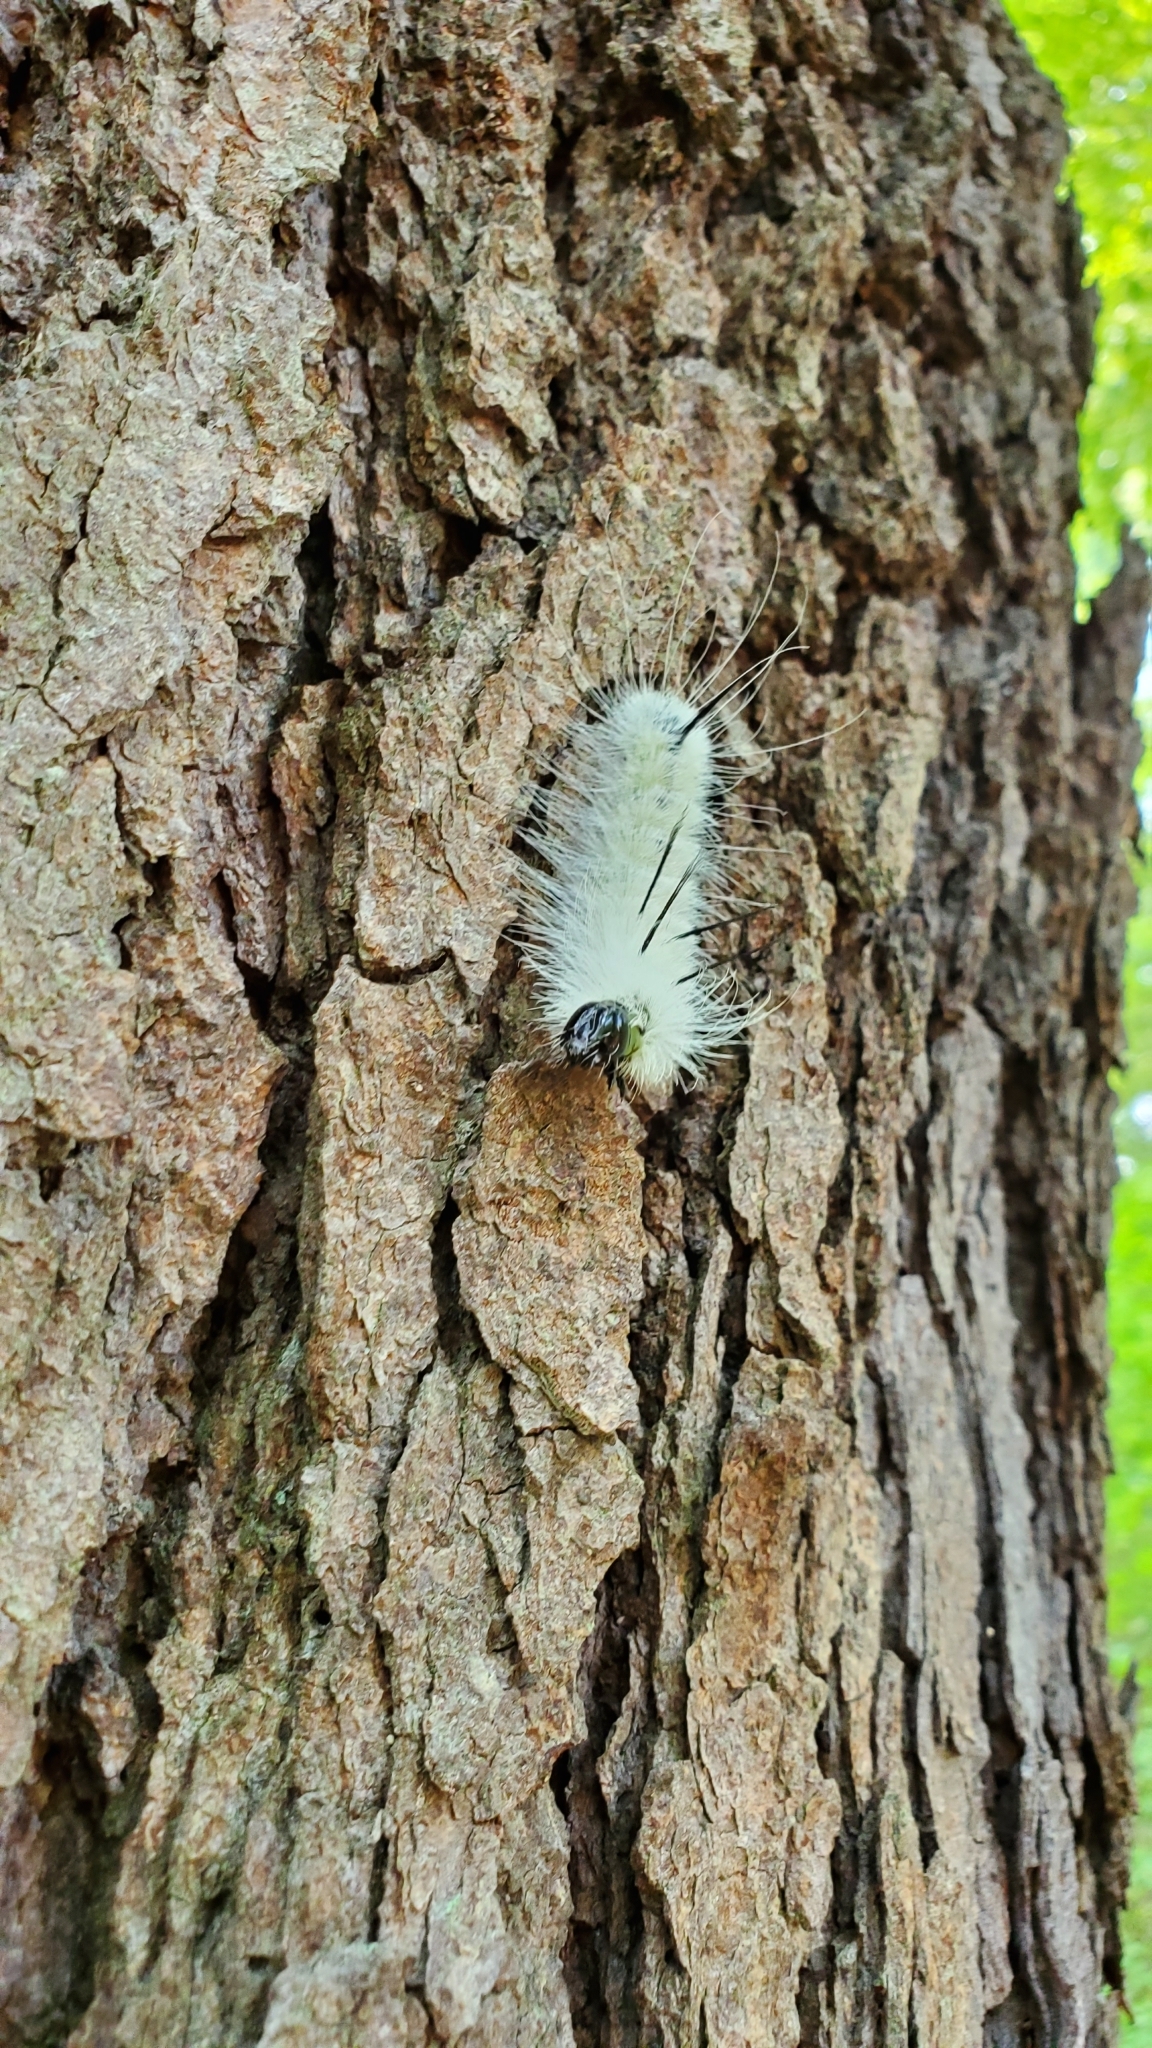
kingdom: Animalia
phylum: Arthropoda
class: Insecta
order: Lepidoptera
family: Noctuidae
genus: Acronicta
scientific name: Acronicta americana
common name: American dagger
